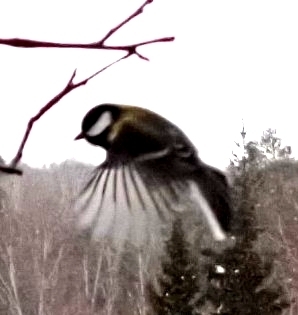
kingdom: Animalia
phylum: Chordata
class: Aves
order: Passeriformes
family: Paridae
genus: Parus
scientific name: Parus major
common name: Great tit
